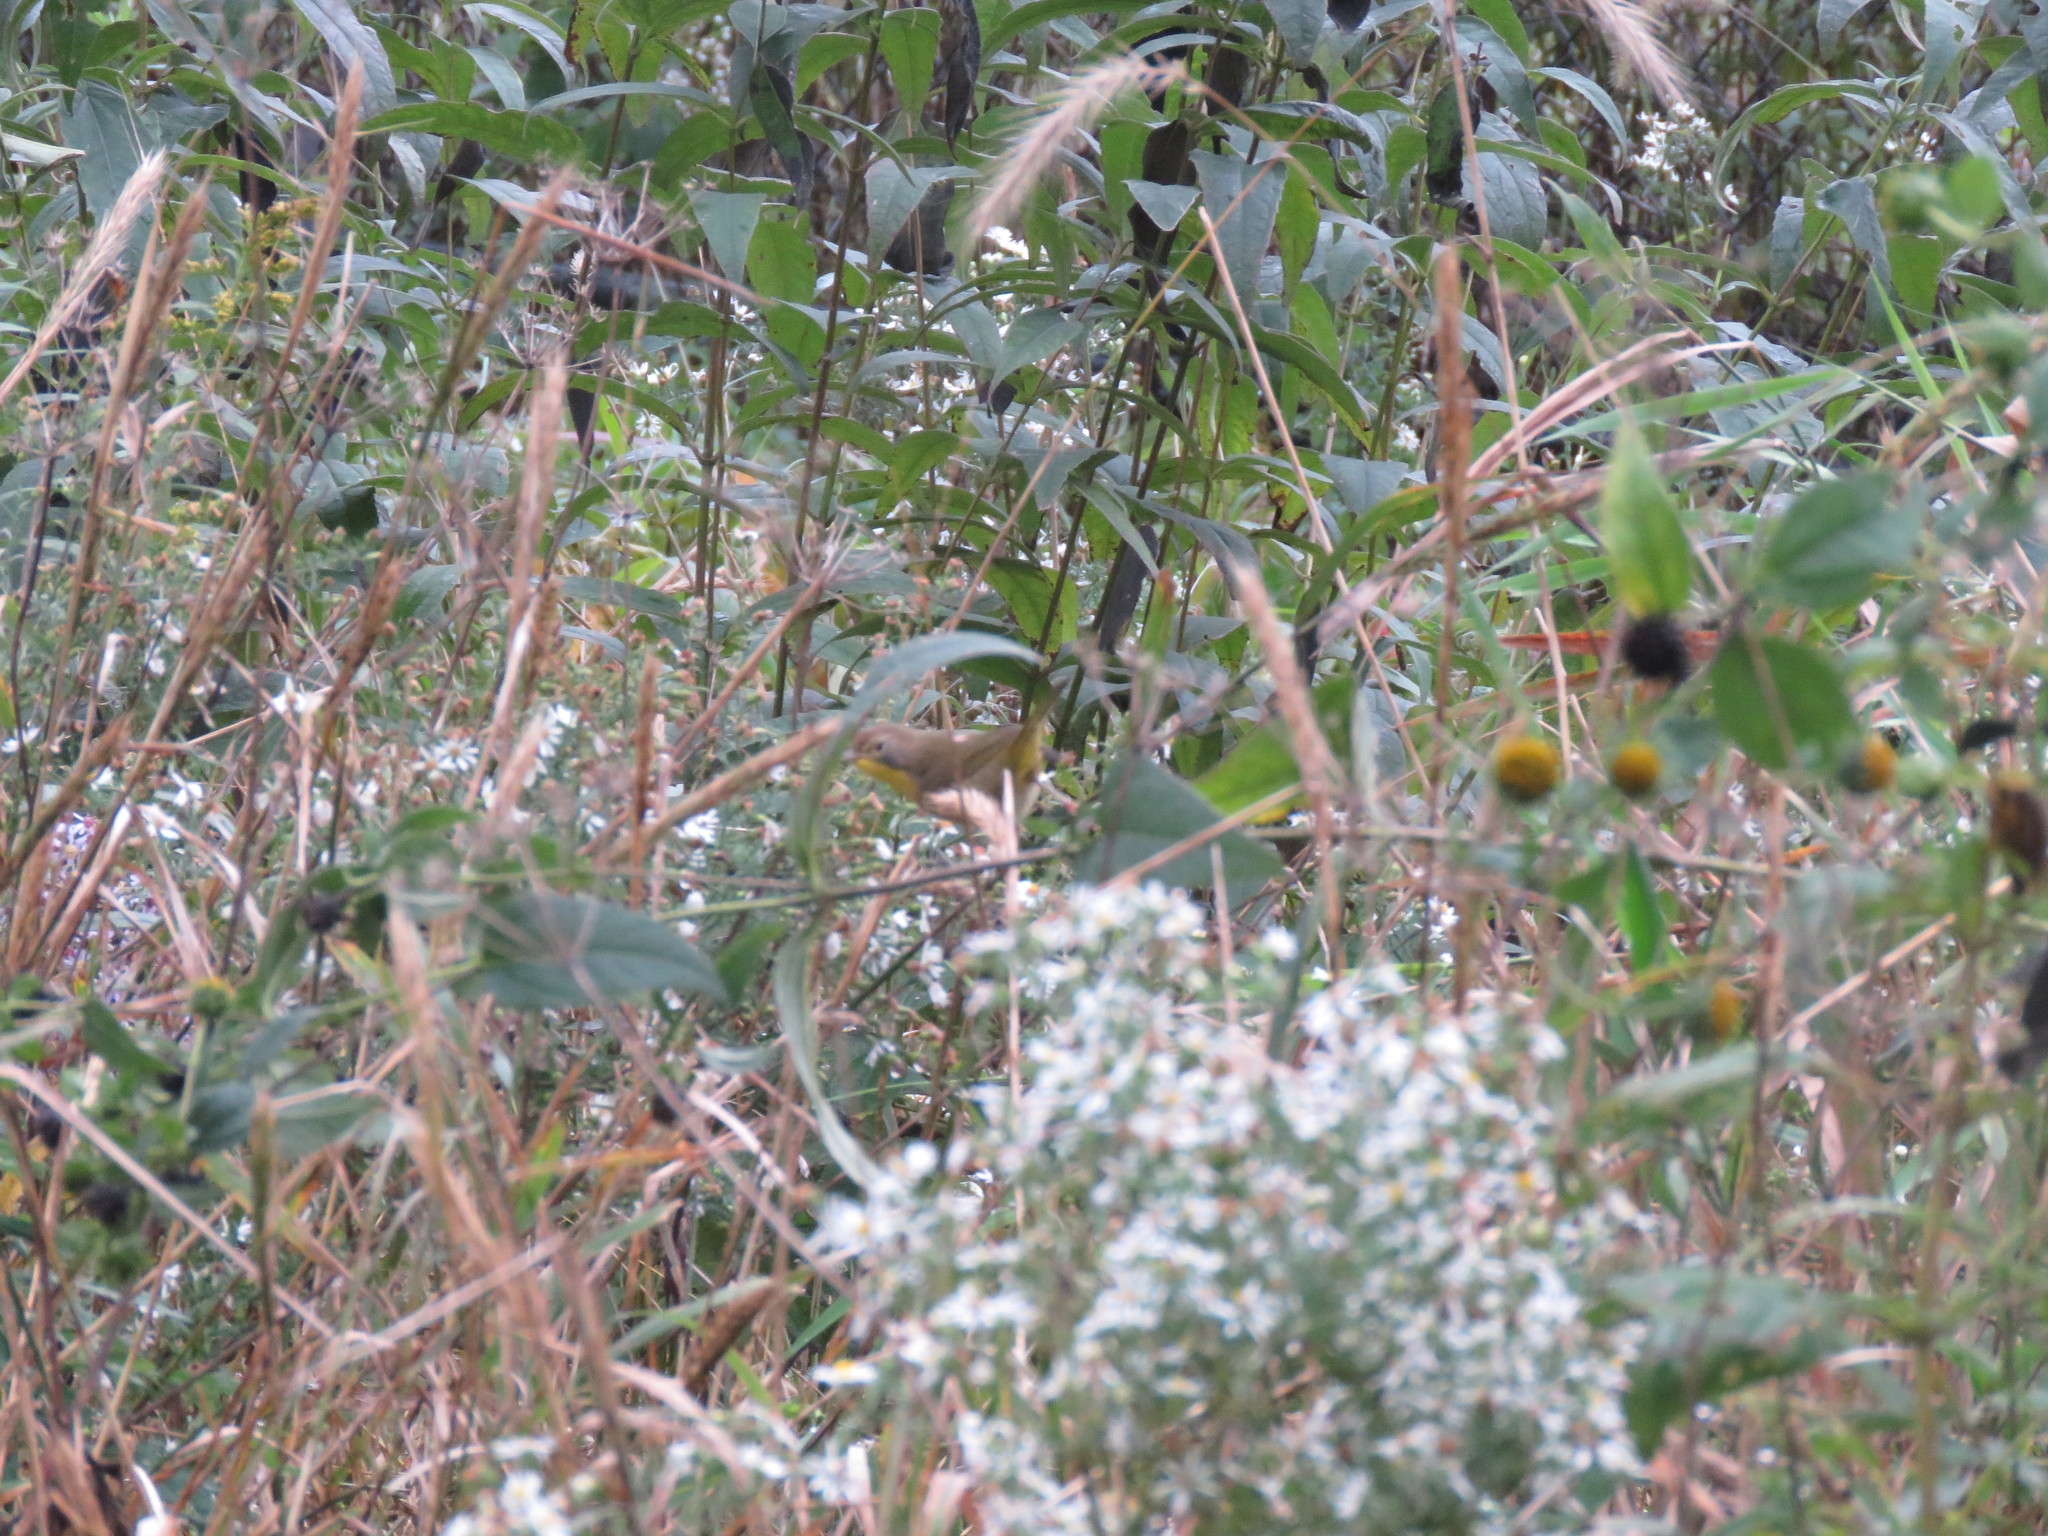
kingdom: Animalia
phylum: Chordata
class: Aves
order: Passeriformes
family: Parulidae
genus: Geothlypis
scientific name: Geothlypis trichas
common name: Common yellowthroat
